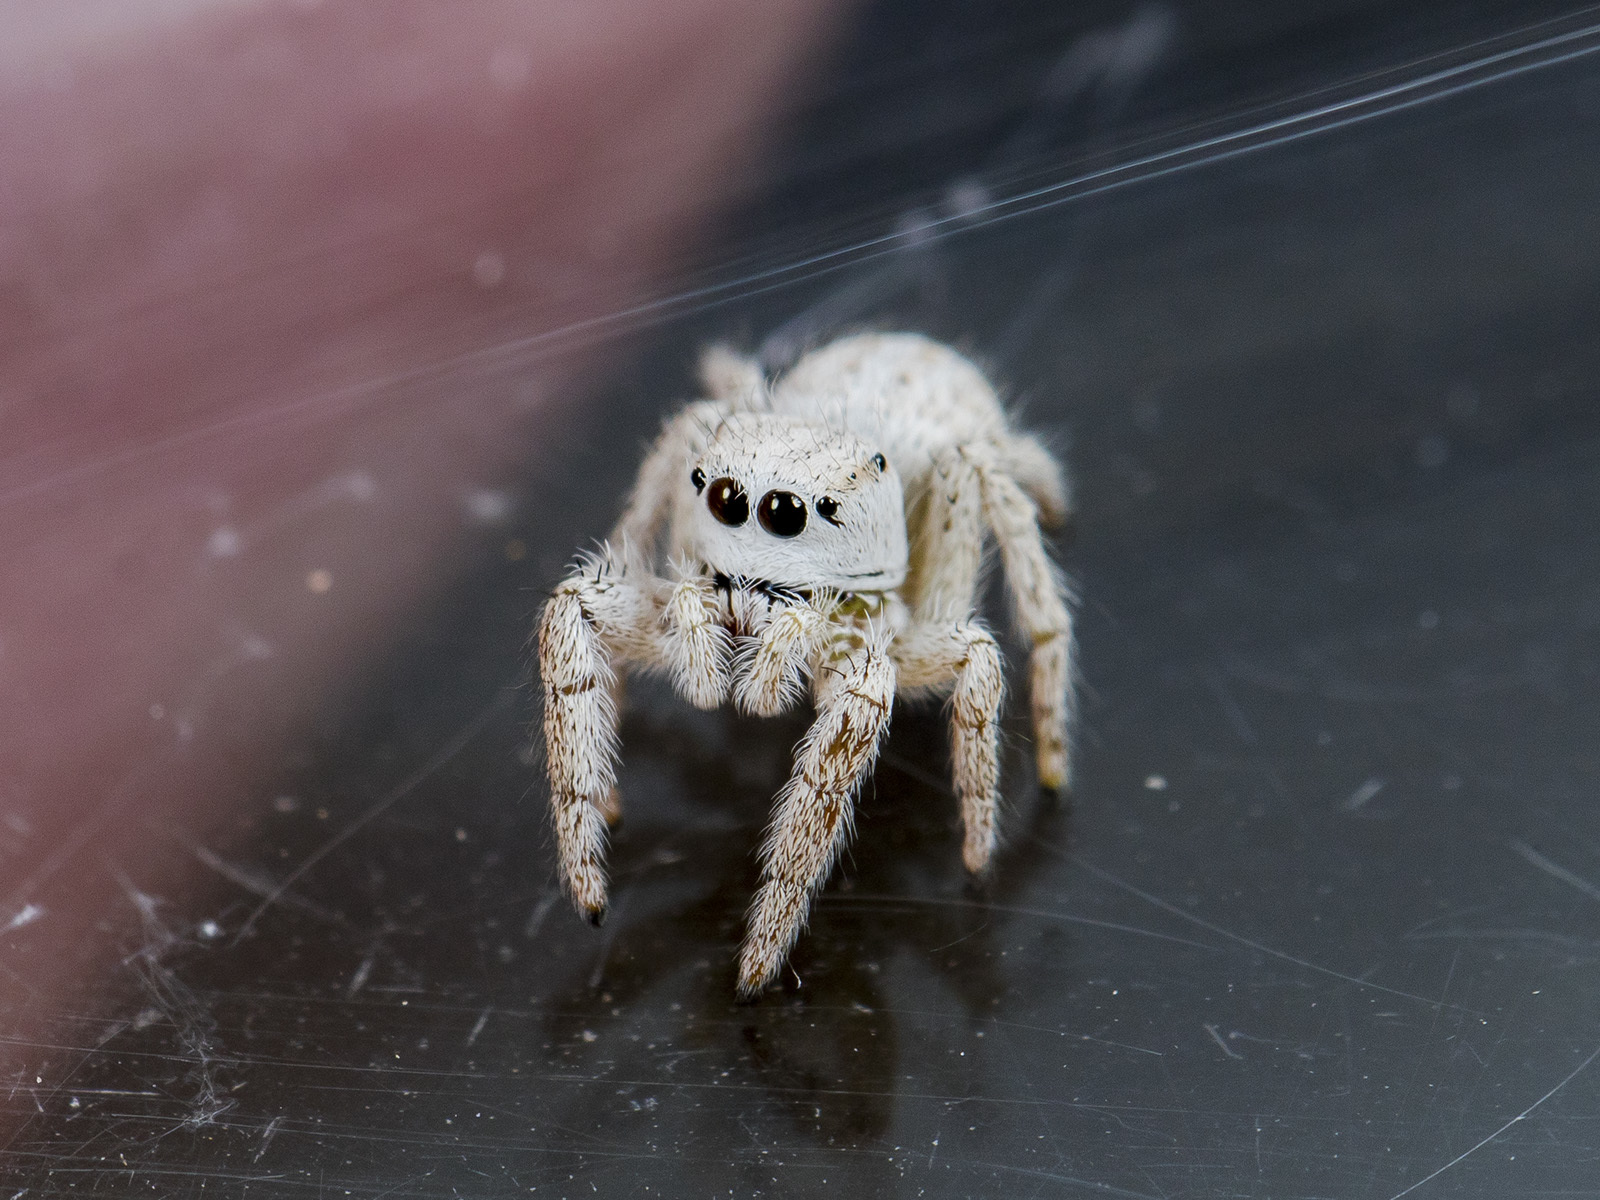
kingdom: Animalia
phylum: Arthropoda
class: Arachnida
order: Araneae
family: Salticidae
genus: Pellenes
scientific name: Pellenes dilutus
